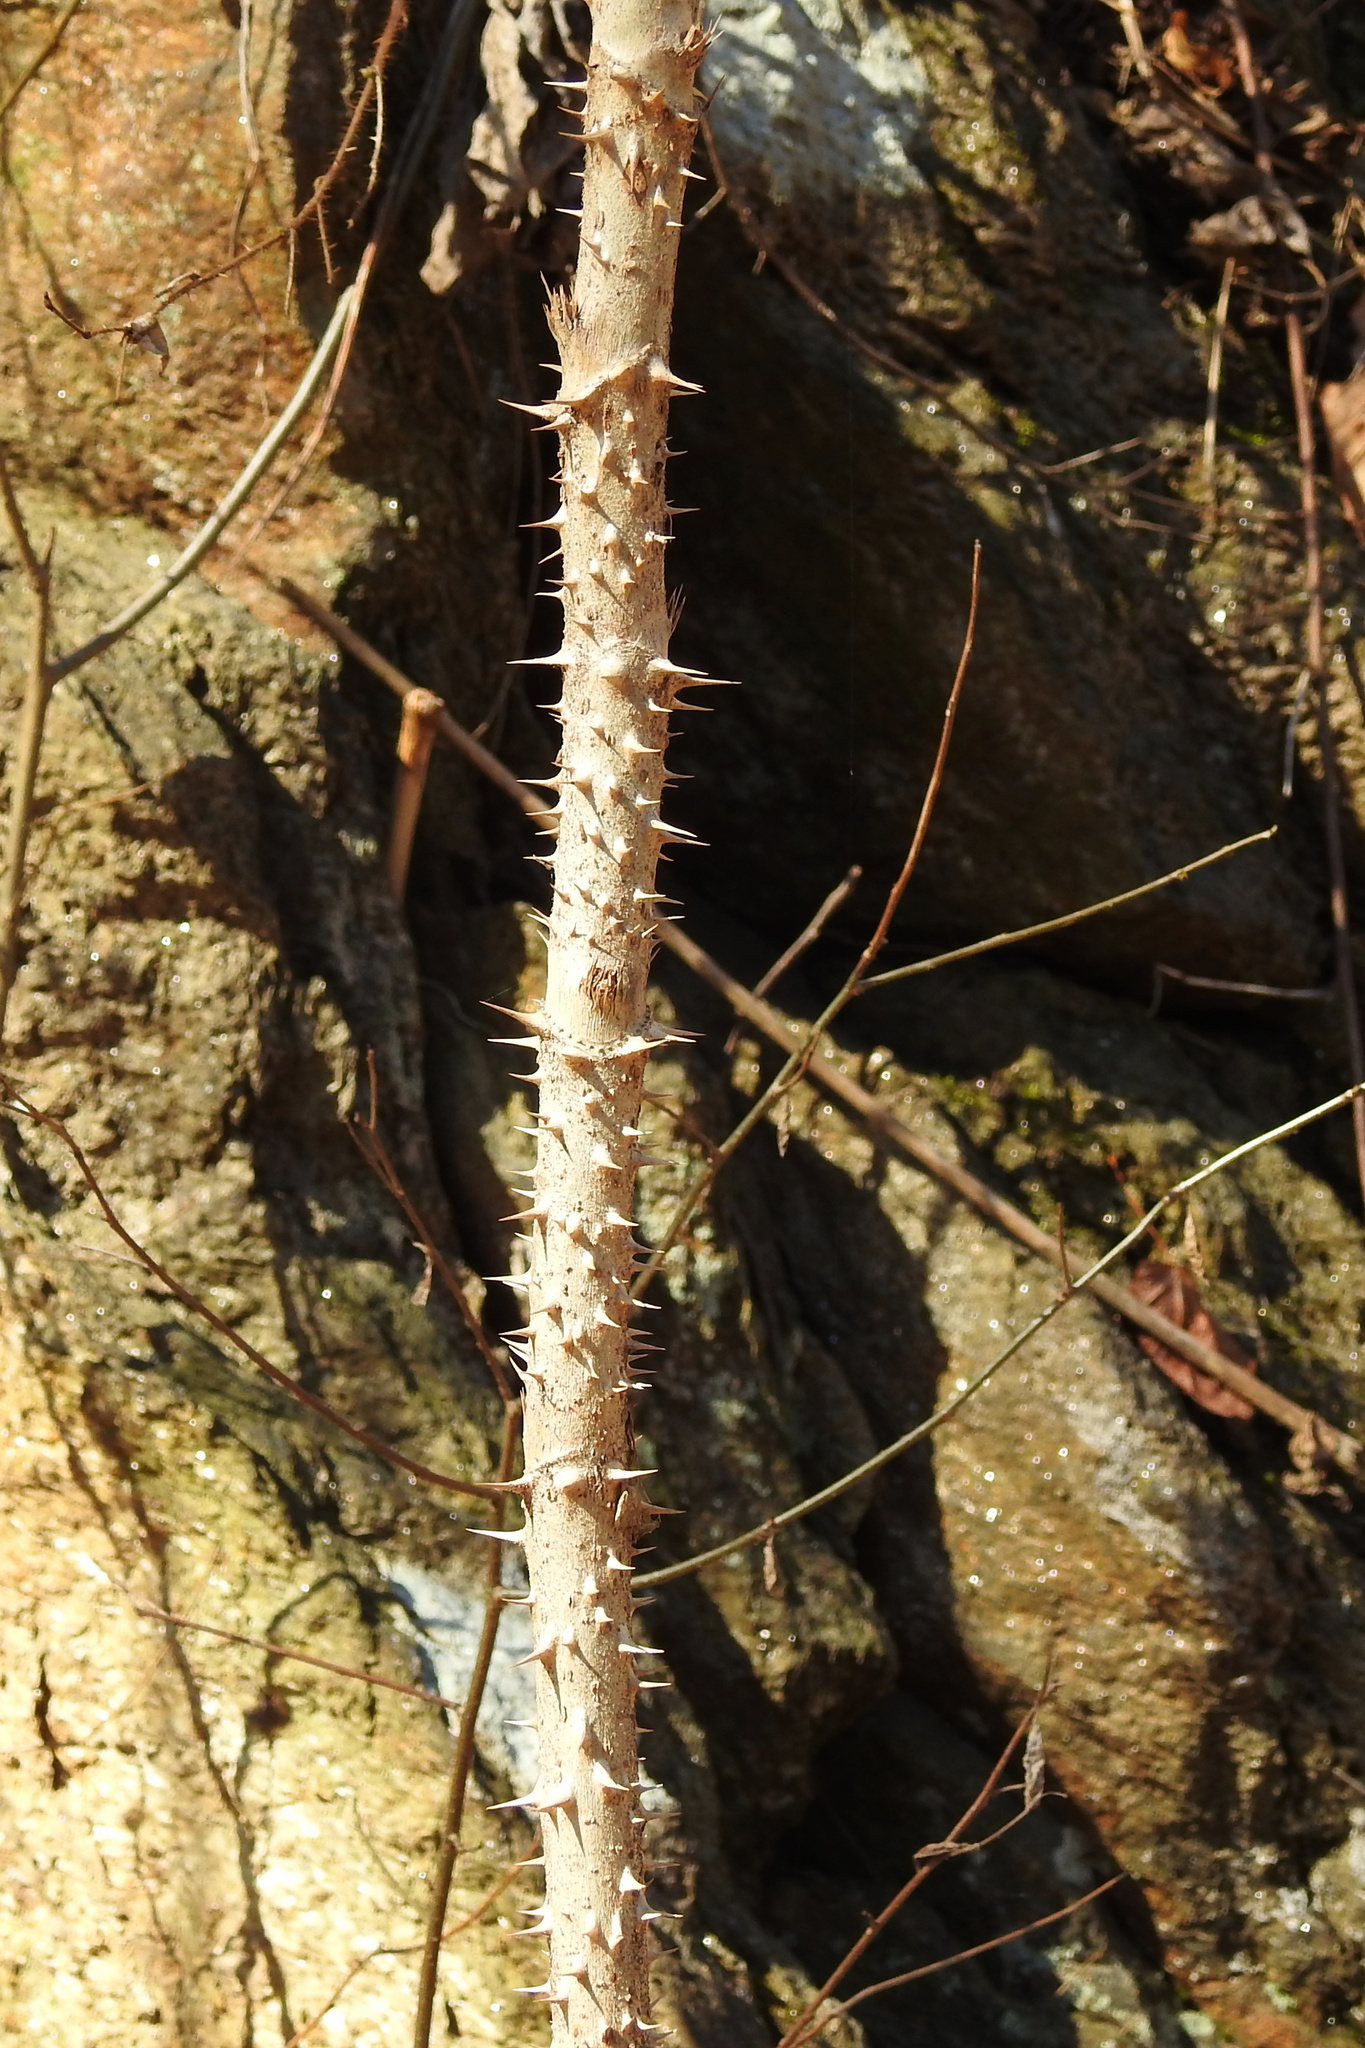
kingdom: Plantae
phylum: Tracheophyta
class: Magnoliopsida
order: Apiales
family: Araliaceae
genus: Aralia
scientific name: Aralia elata
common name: Japanese angelica-tree
